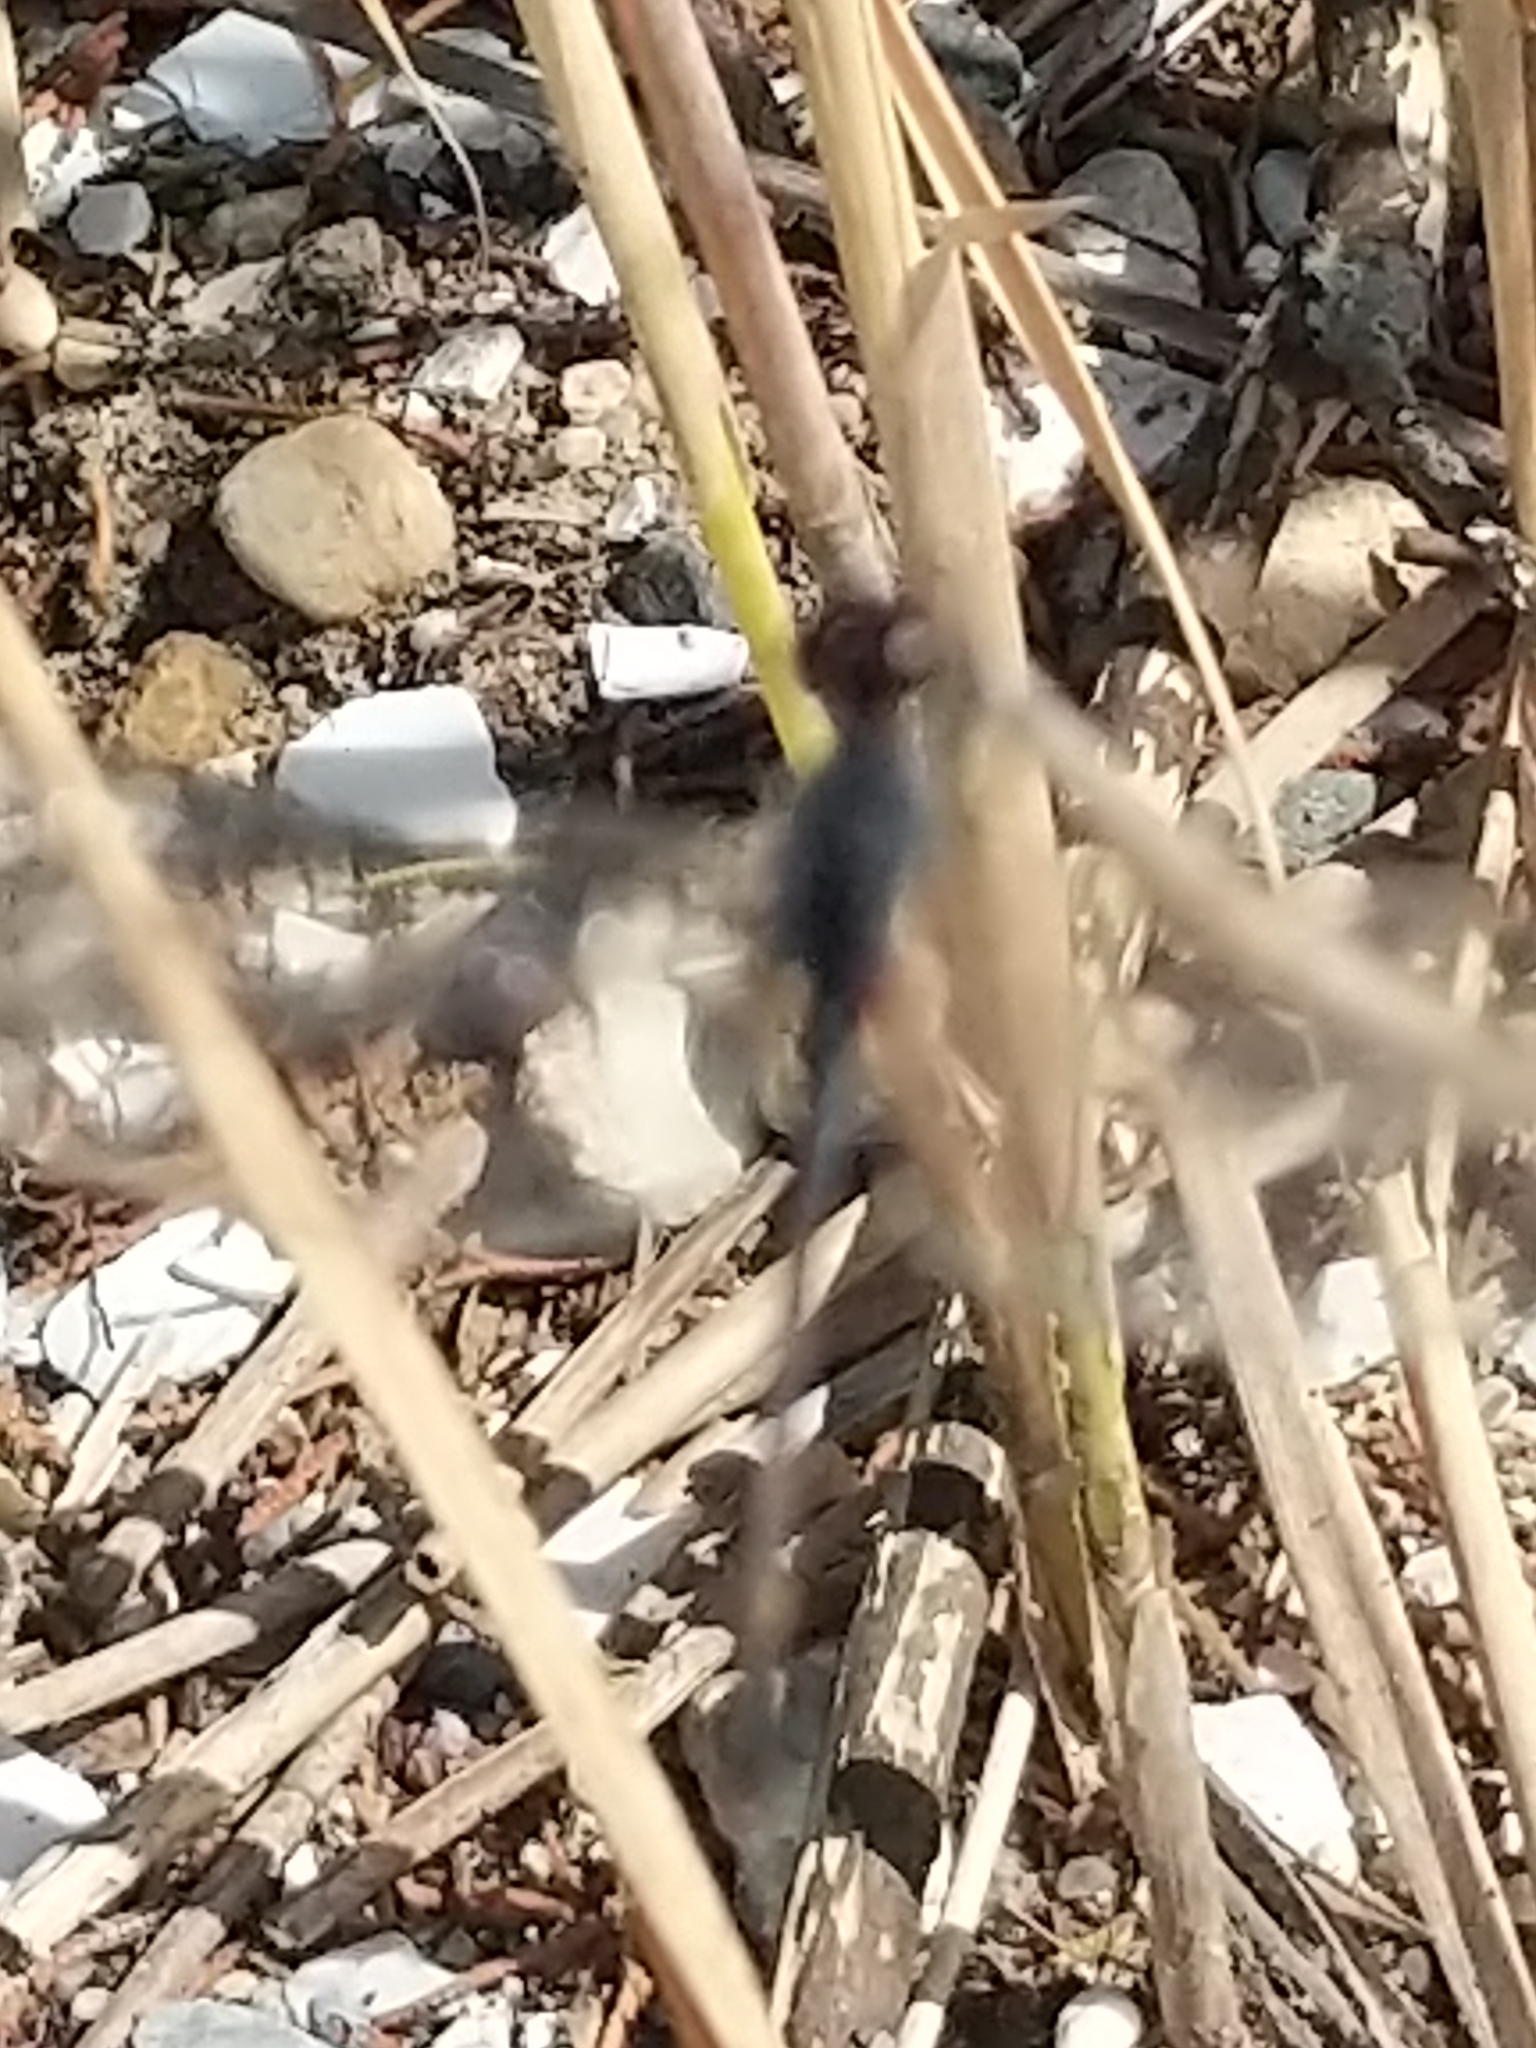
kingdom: Animalia
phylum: Arthropoda
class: Insecta
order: Odonata
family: Libellulidae
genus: Erythrodiplax
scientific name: Erythrodiplax berenice
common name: Seaside dragonlet
